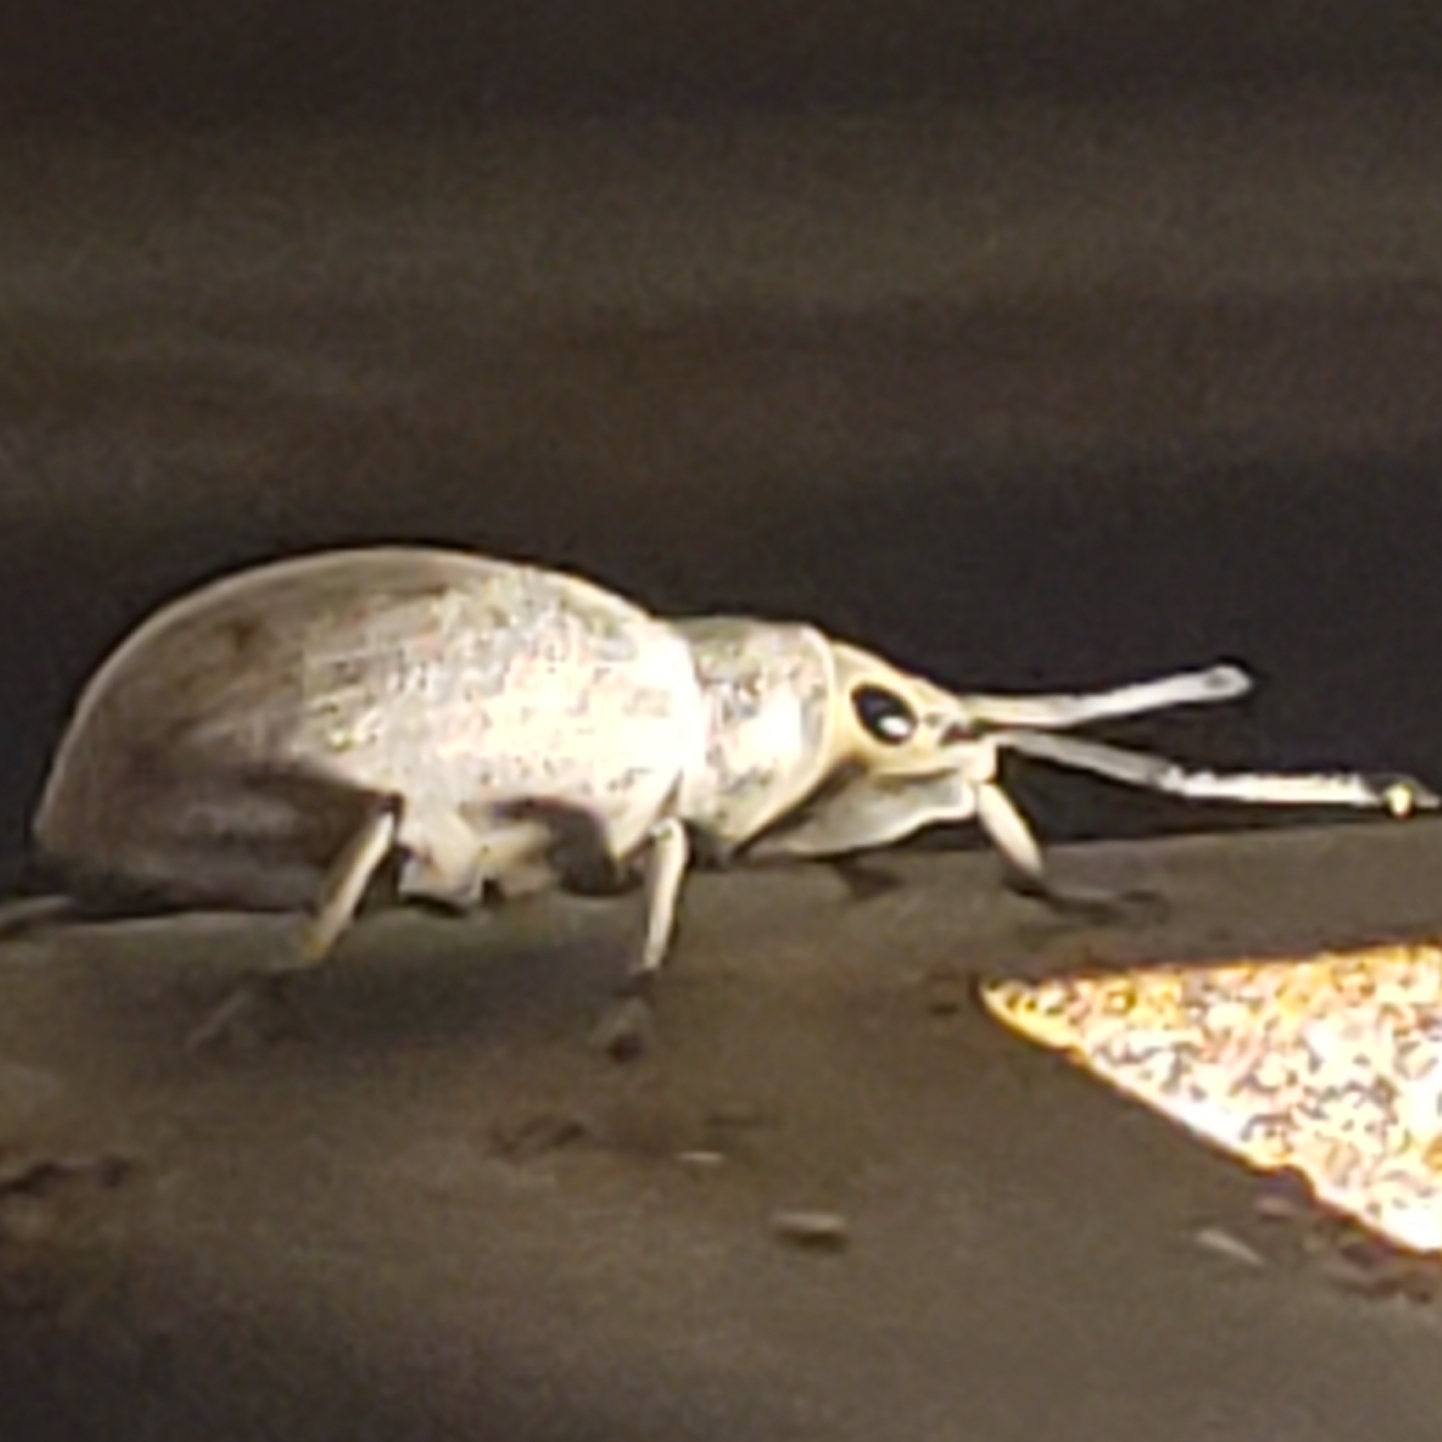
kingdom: Animalia
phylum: Arthropoda
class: Insecta
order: Coleoptera
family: Curculionidae
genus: Myllocerus
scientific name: Myllocerus undecimpustulatus
